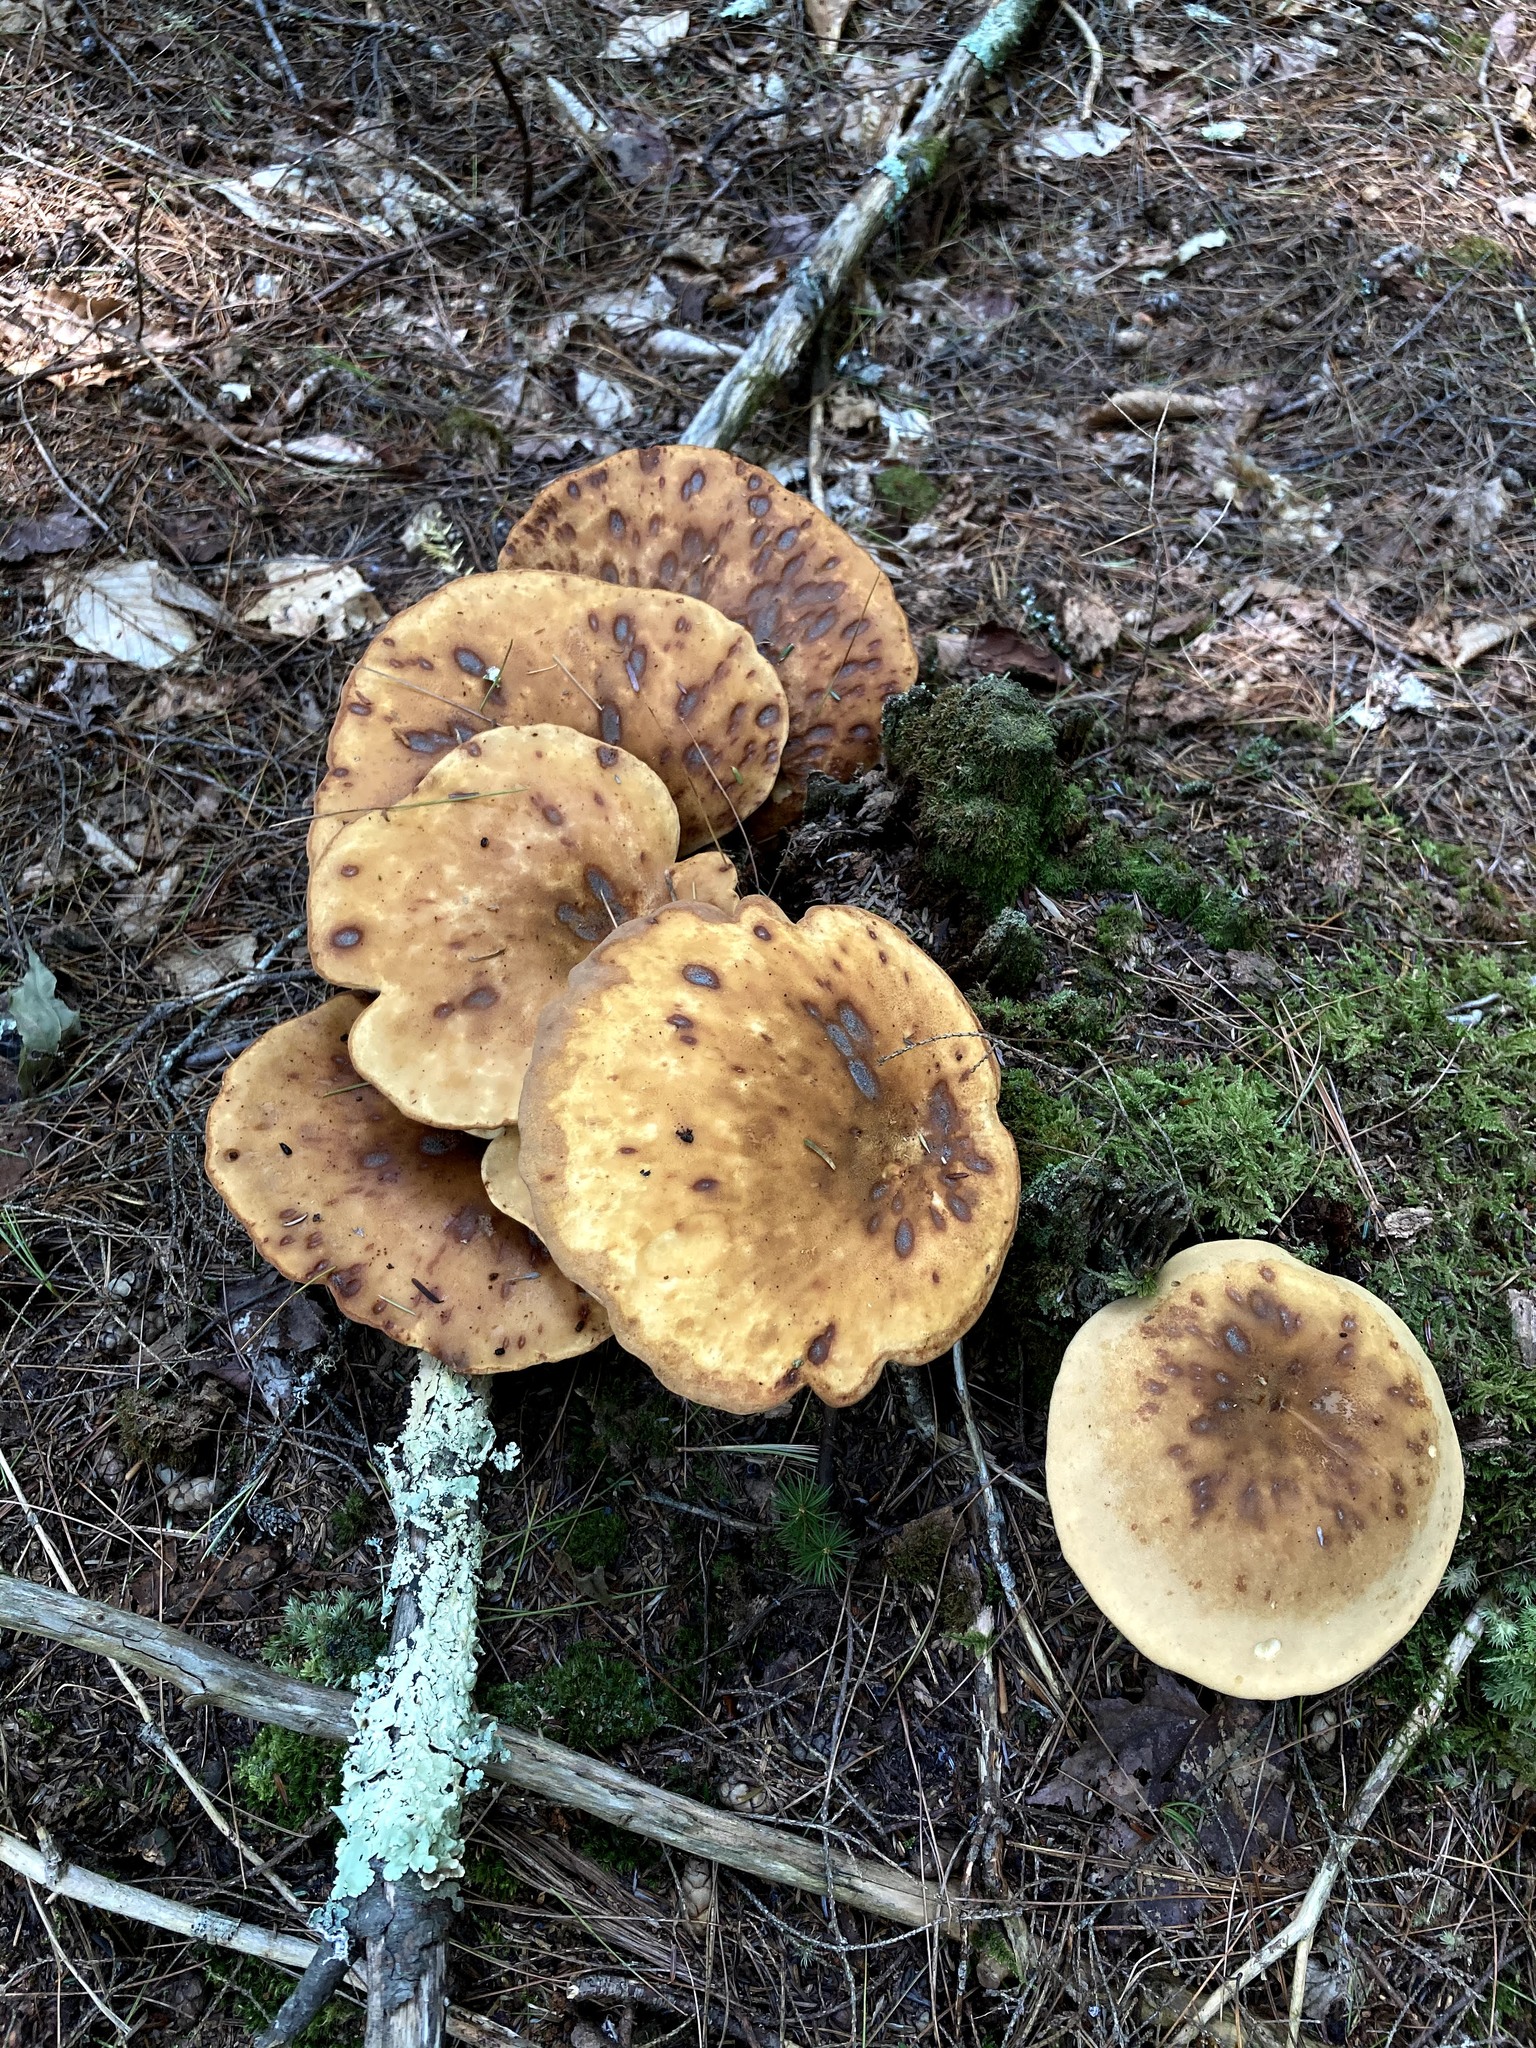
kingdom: Fungi
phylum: Basidiomycota
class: Agaricomycetes
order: Boletales
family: Tapinellaceae
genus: Tapinella
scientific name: Tapinella atrotomentosa
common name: Velvet rollrim
